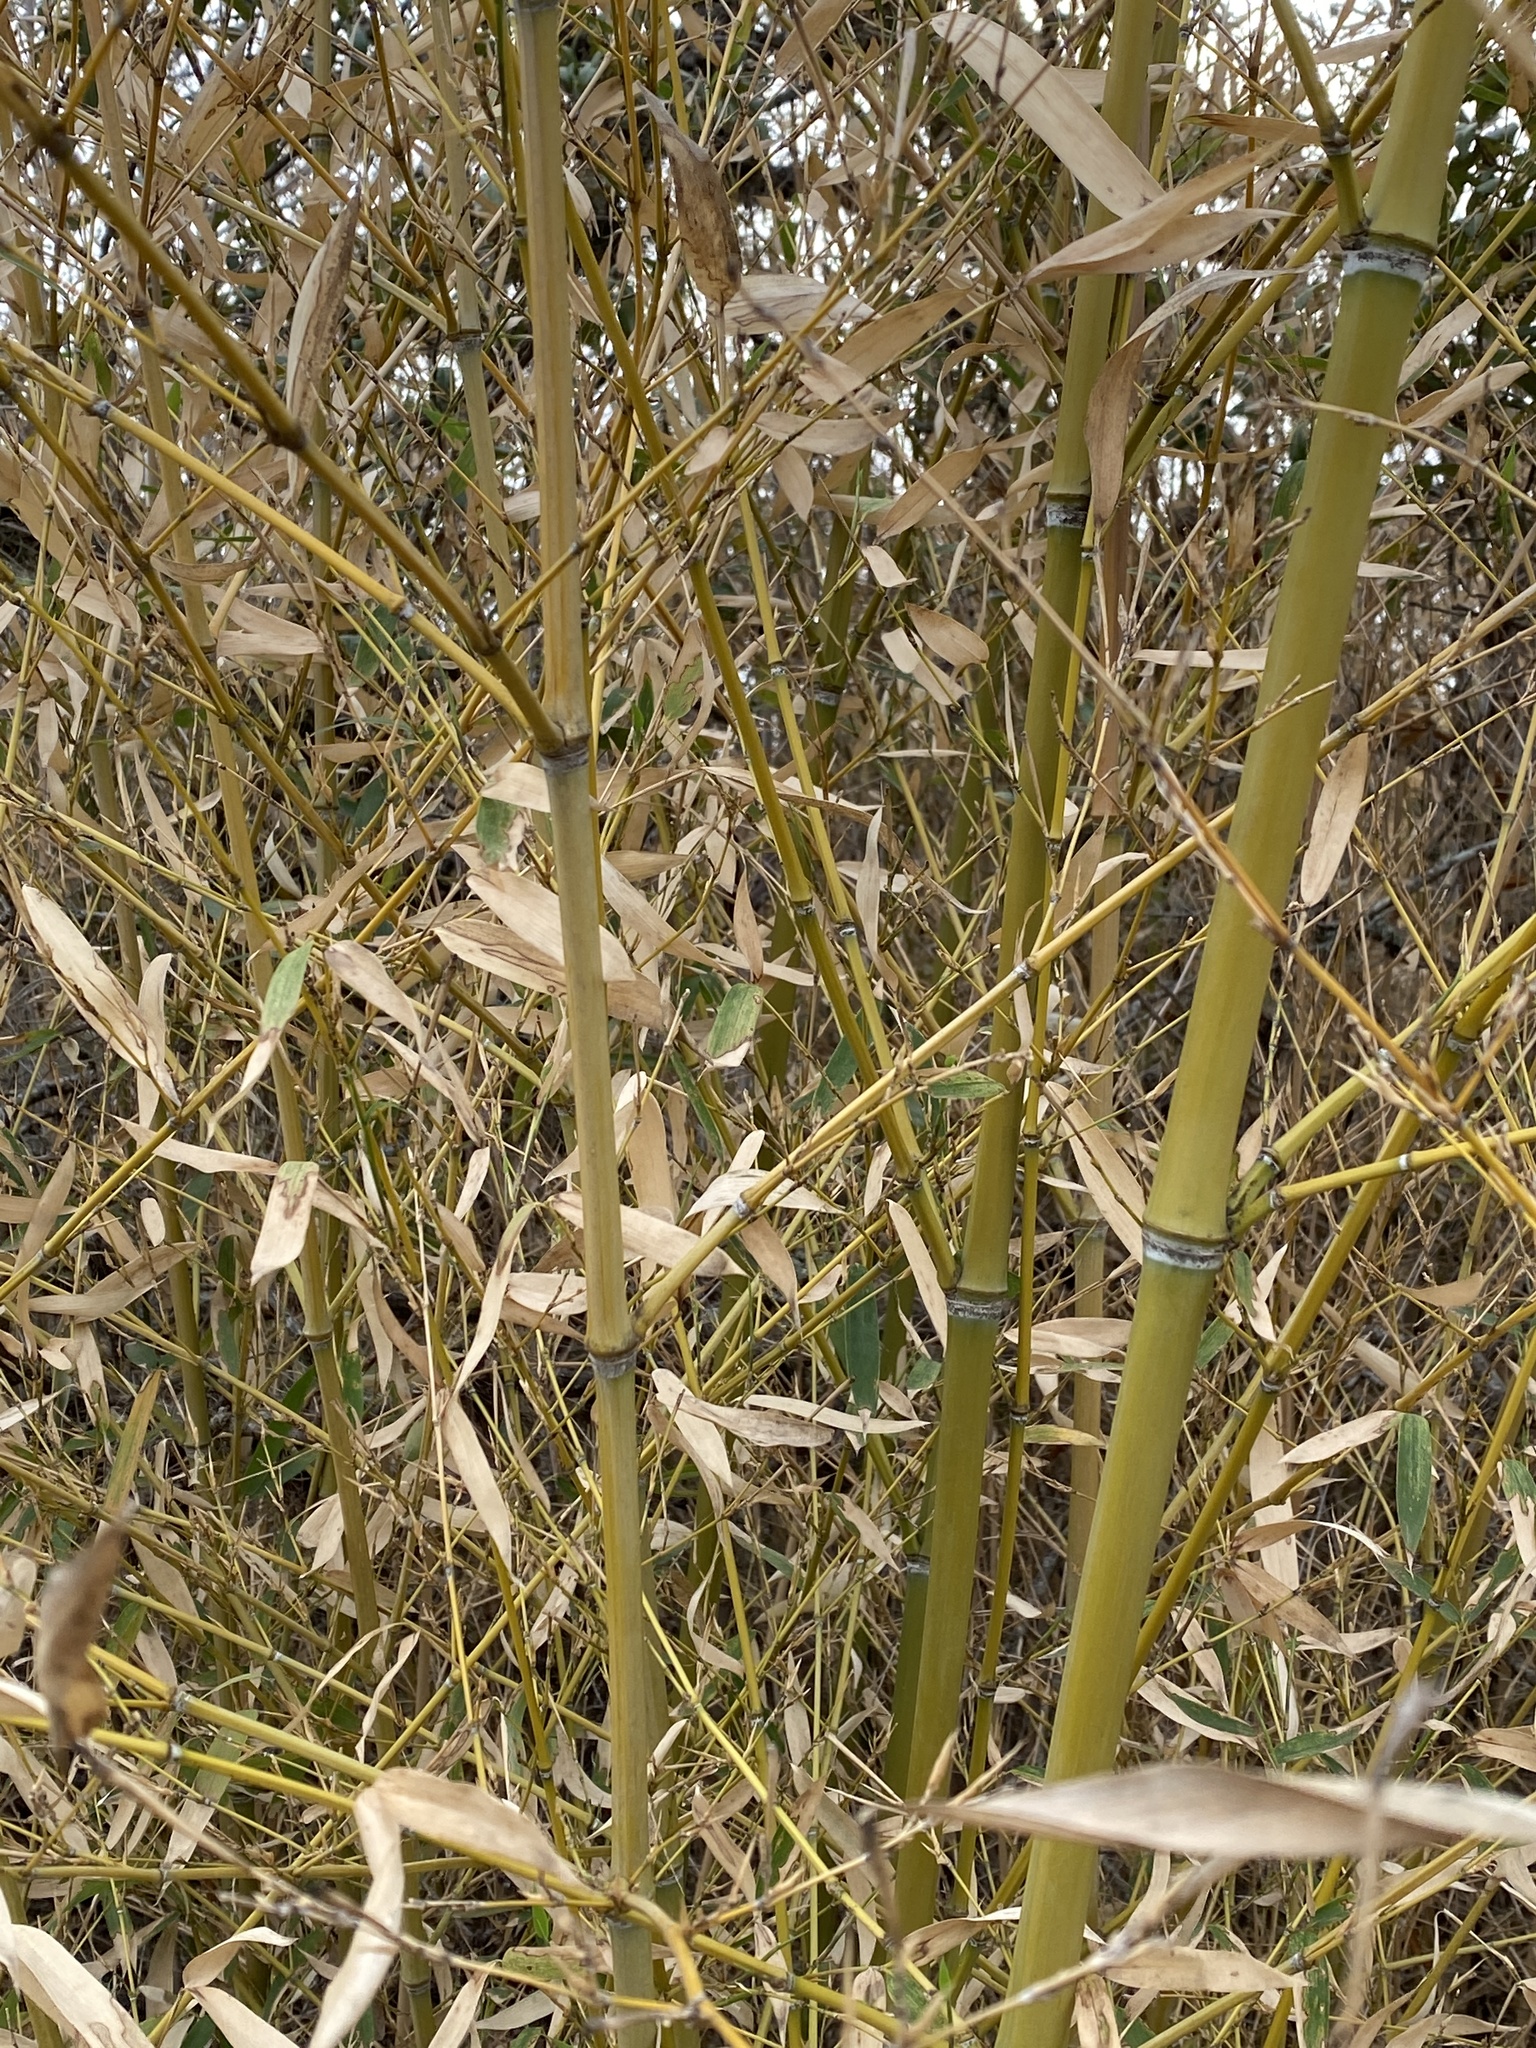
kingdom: Plantae
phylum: Tracheophyta
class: Liliopsida
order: Poales
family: Poaceae
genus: Phyllostachys
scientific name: Phyllostachys aurea
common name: Golden bamboo
